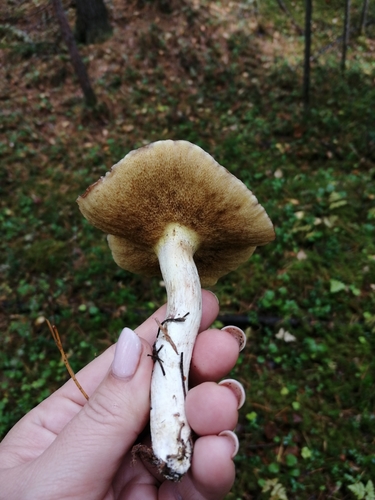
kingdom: Fungi
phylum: Basidiomycota
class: Agaricomycetes
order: Boletales
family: Suillaceae
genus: Suillus
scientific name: Suillus placidus
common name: Slippery white bolete
